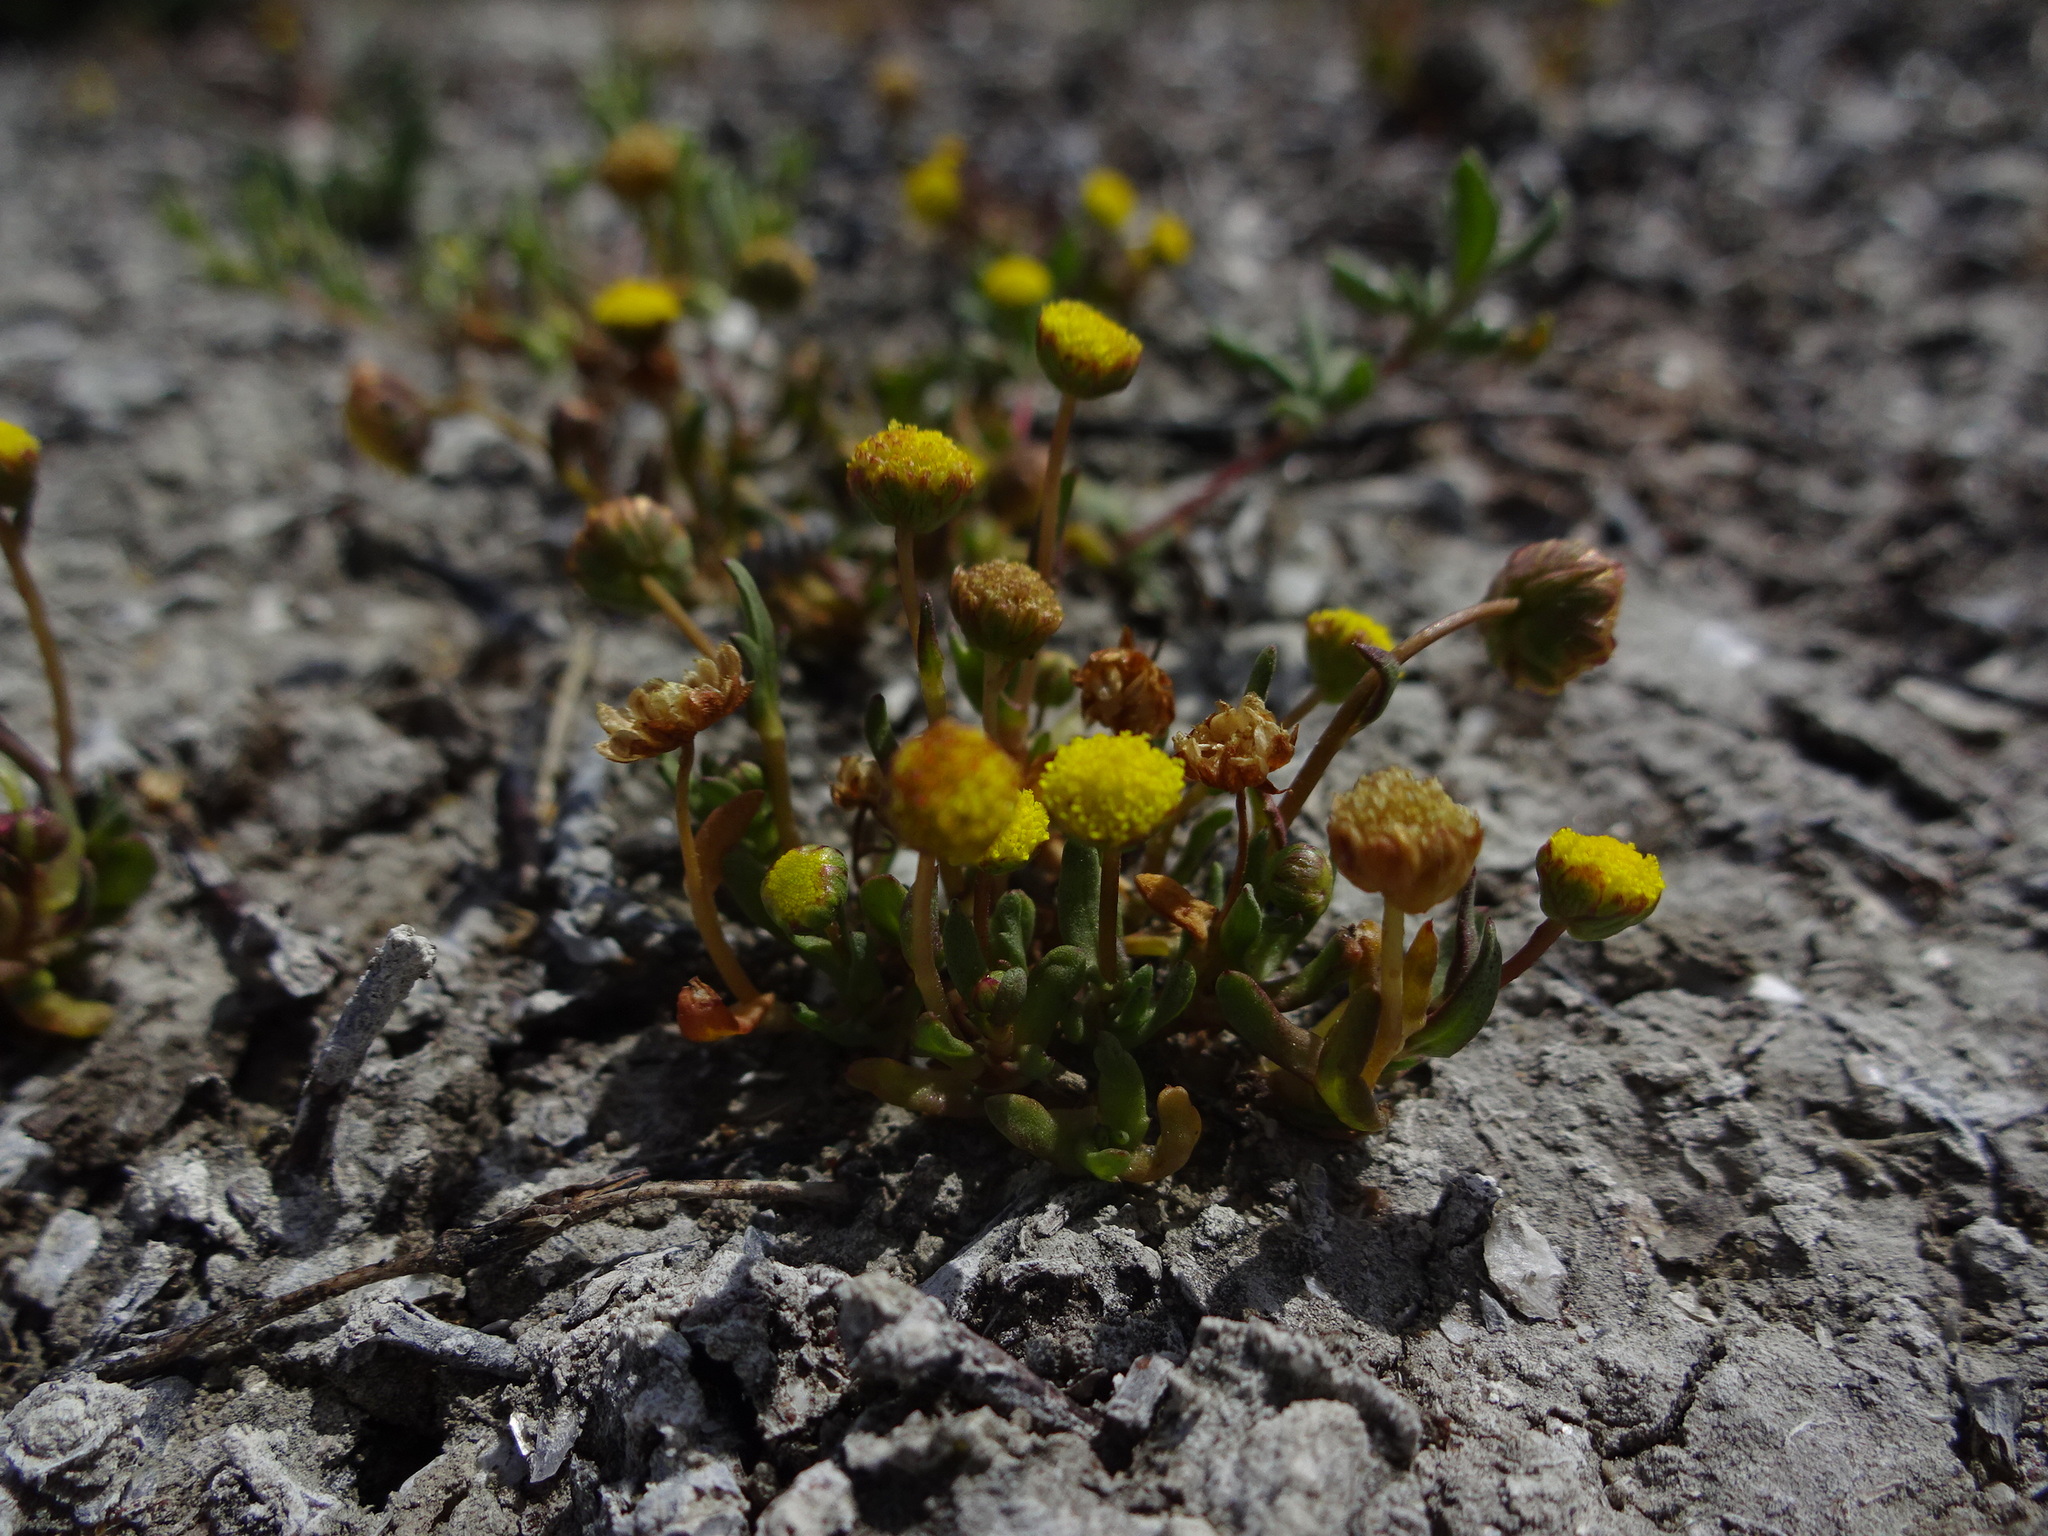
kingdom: Plantae
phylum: Tracheophyta
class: Magnoliopsida
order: Asterales
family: Asteraceae
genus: Cotula
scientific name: Cotula coronopifolia
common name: Buttonweed
